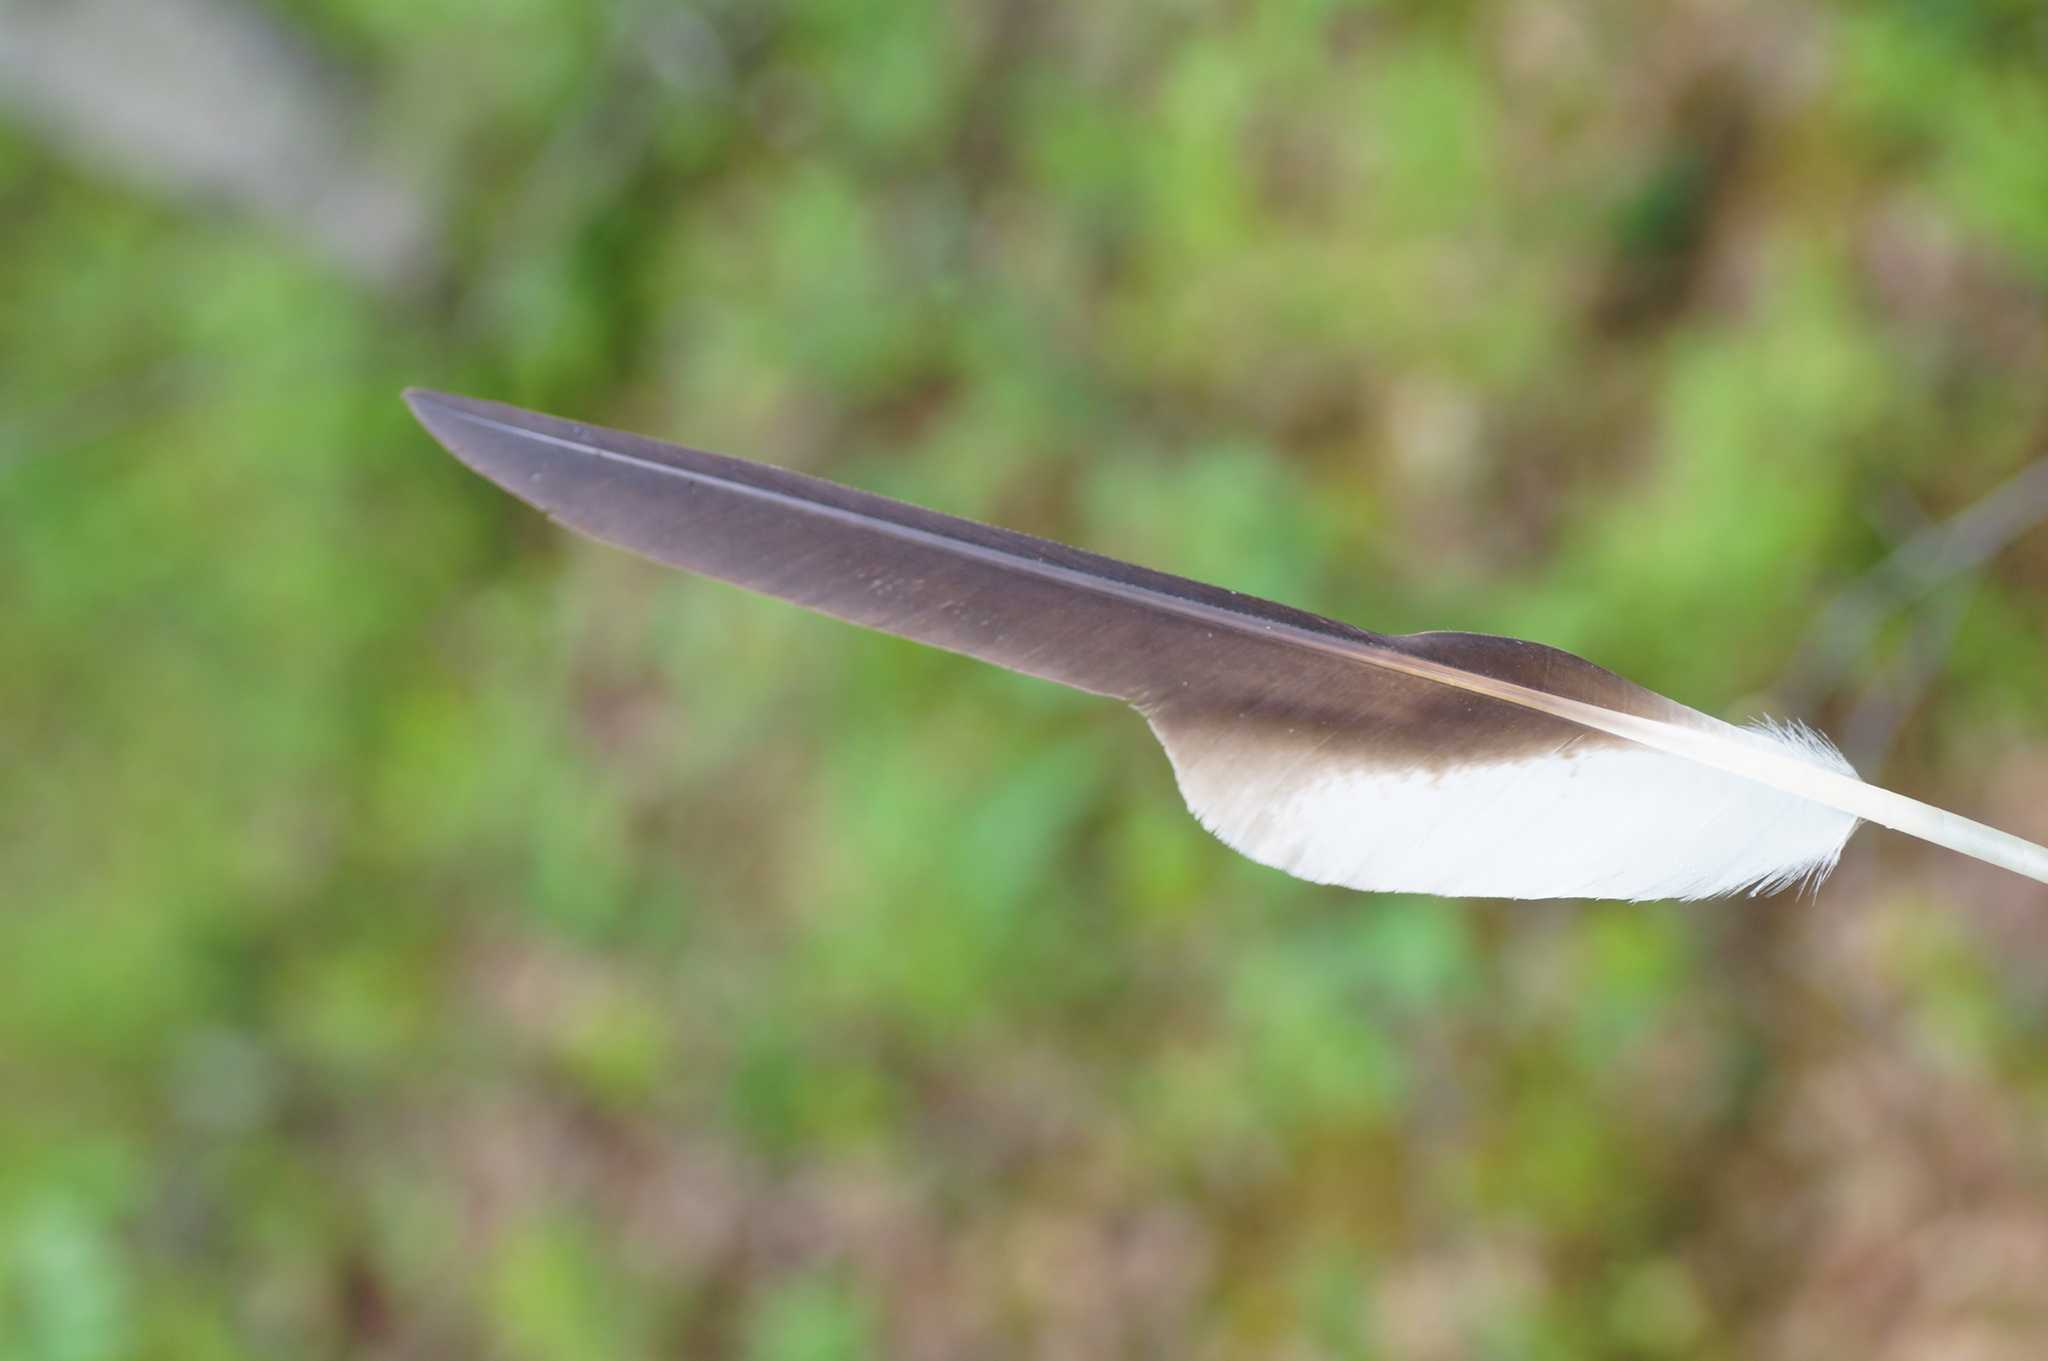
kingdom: Animalia
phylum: Chordata
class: Aves
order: Accipitriformes
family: Pandionidae
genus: Pandion
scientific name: Pandion haliaetus
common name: Osprey
